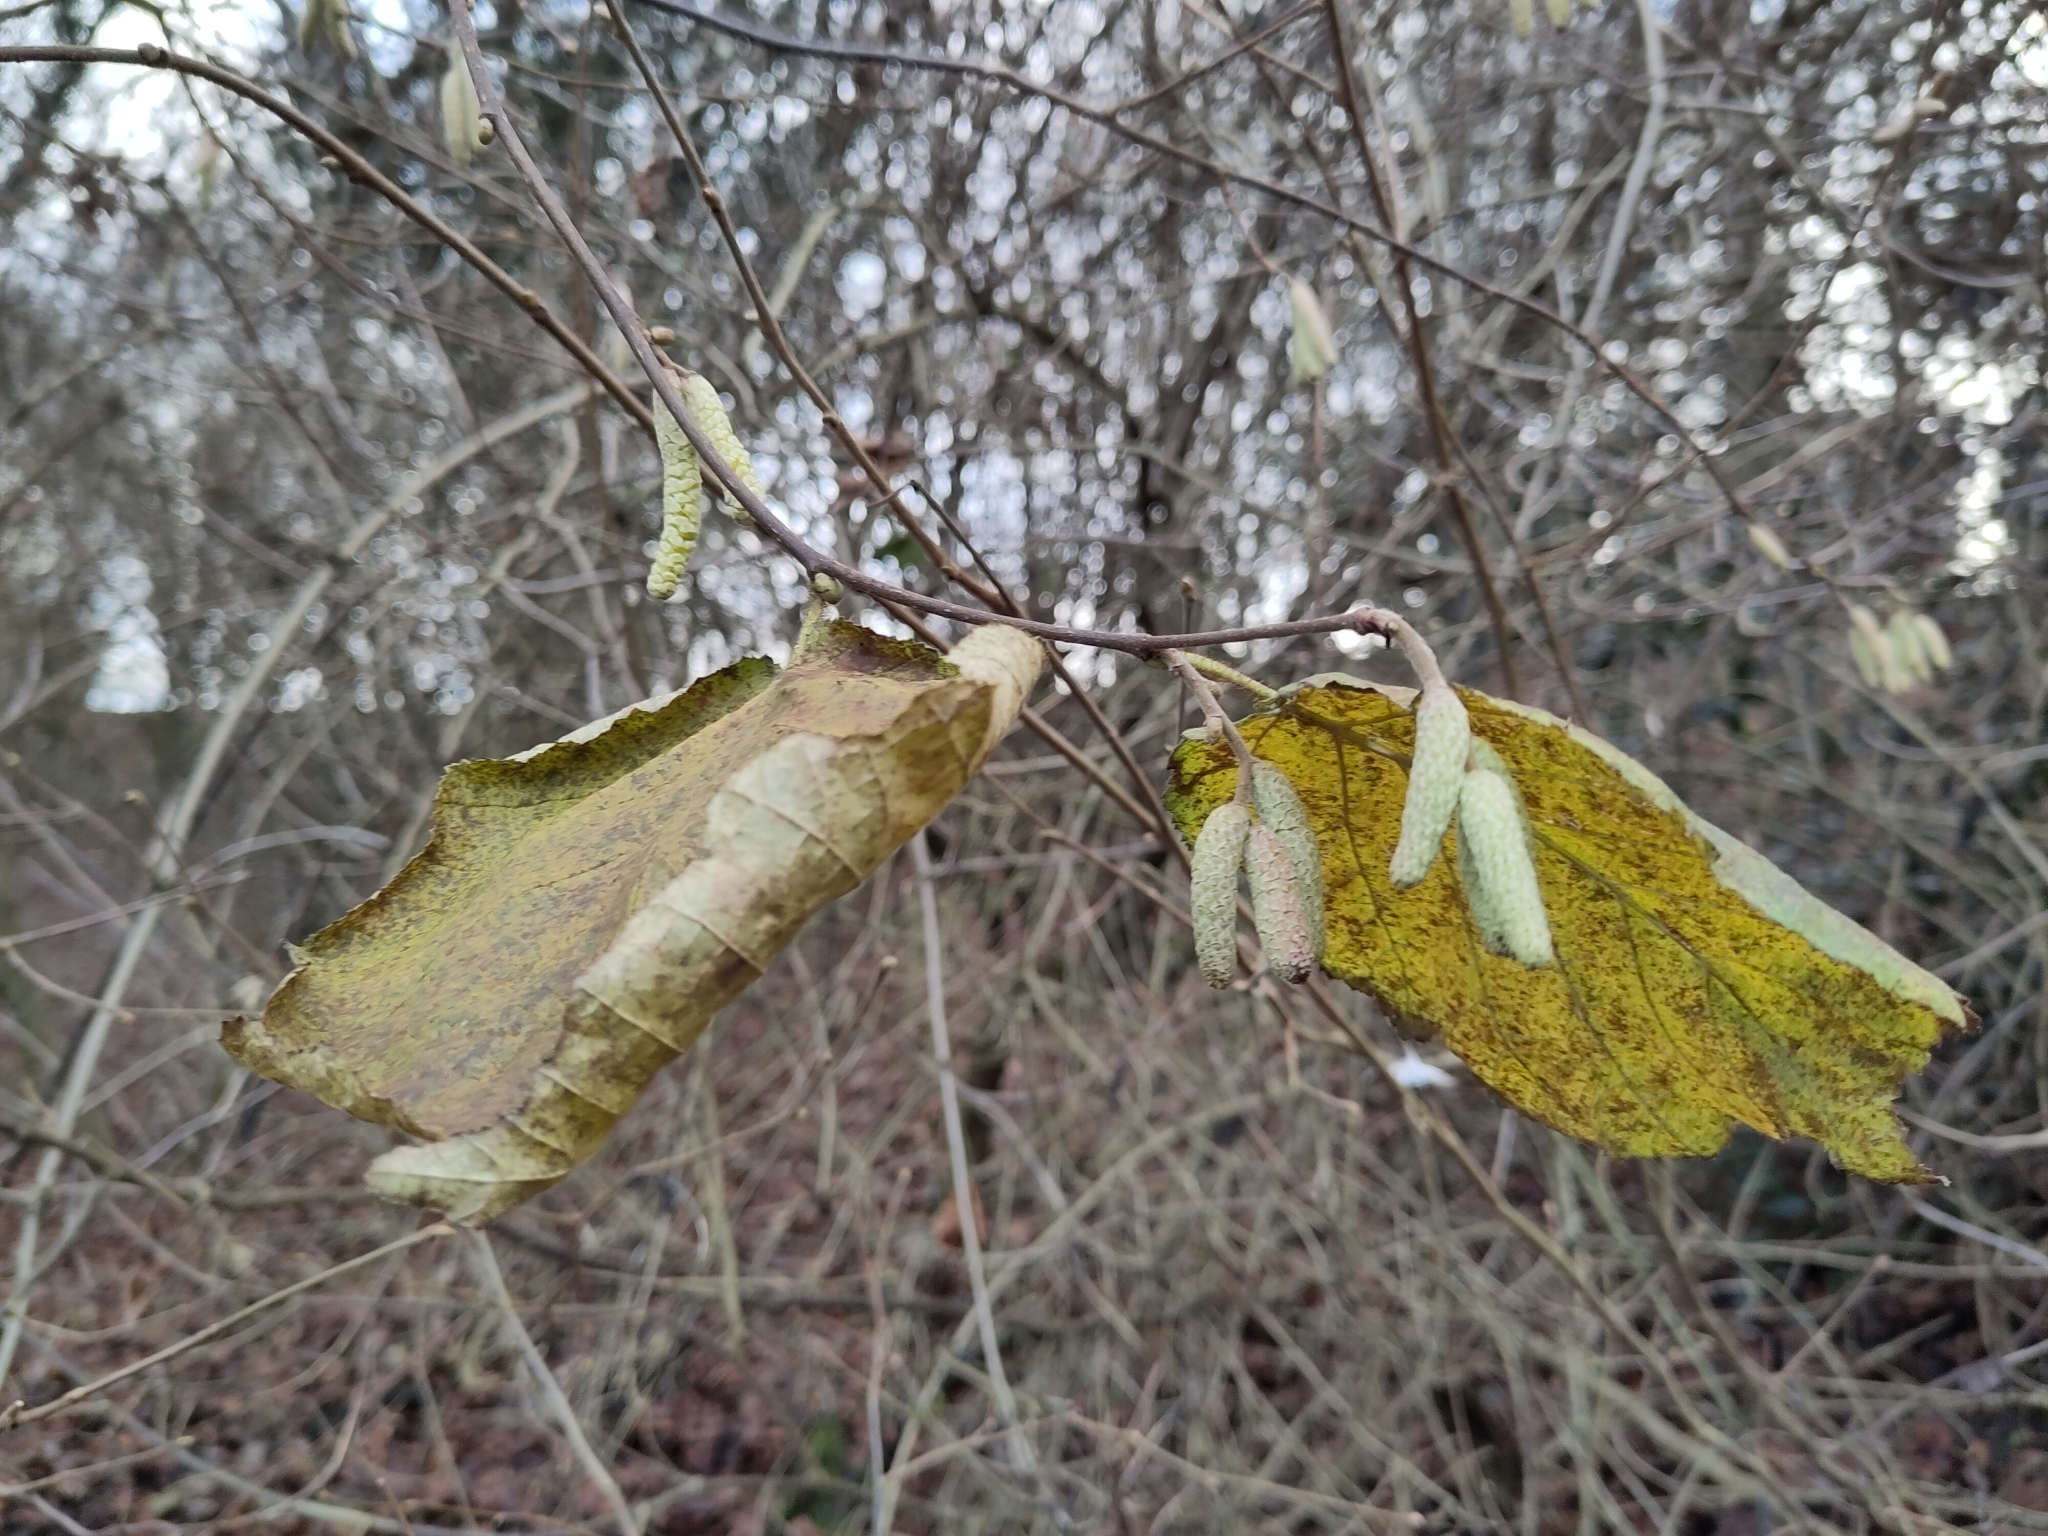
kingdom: Plantae
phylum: Tracheophyta
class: Magnoliopsida
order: Fagales
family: Betulaceae
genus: Corylus
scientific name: Corylus avellana
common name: European hazel
